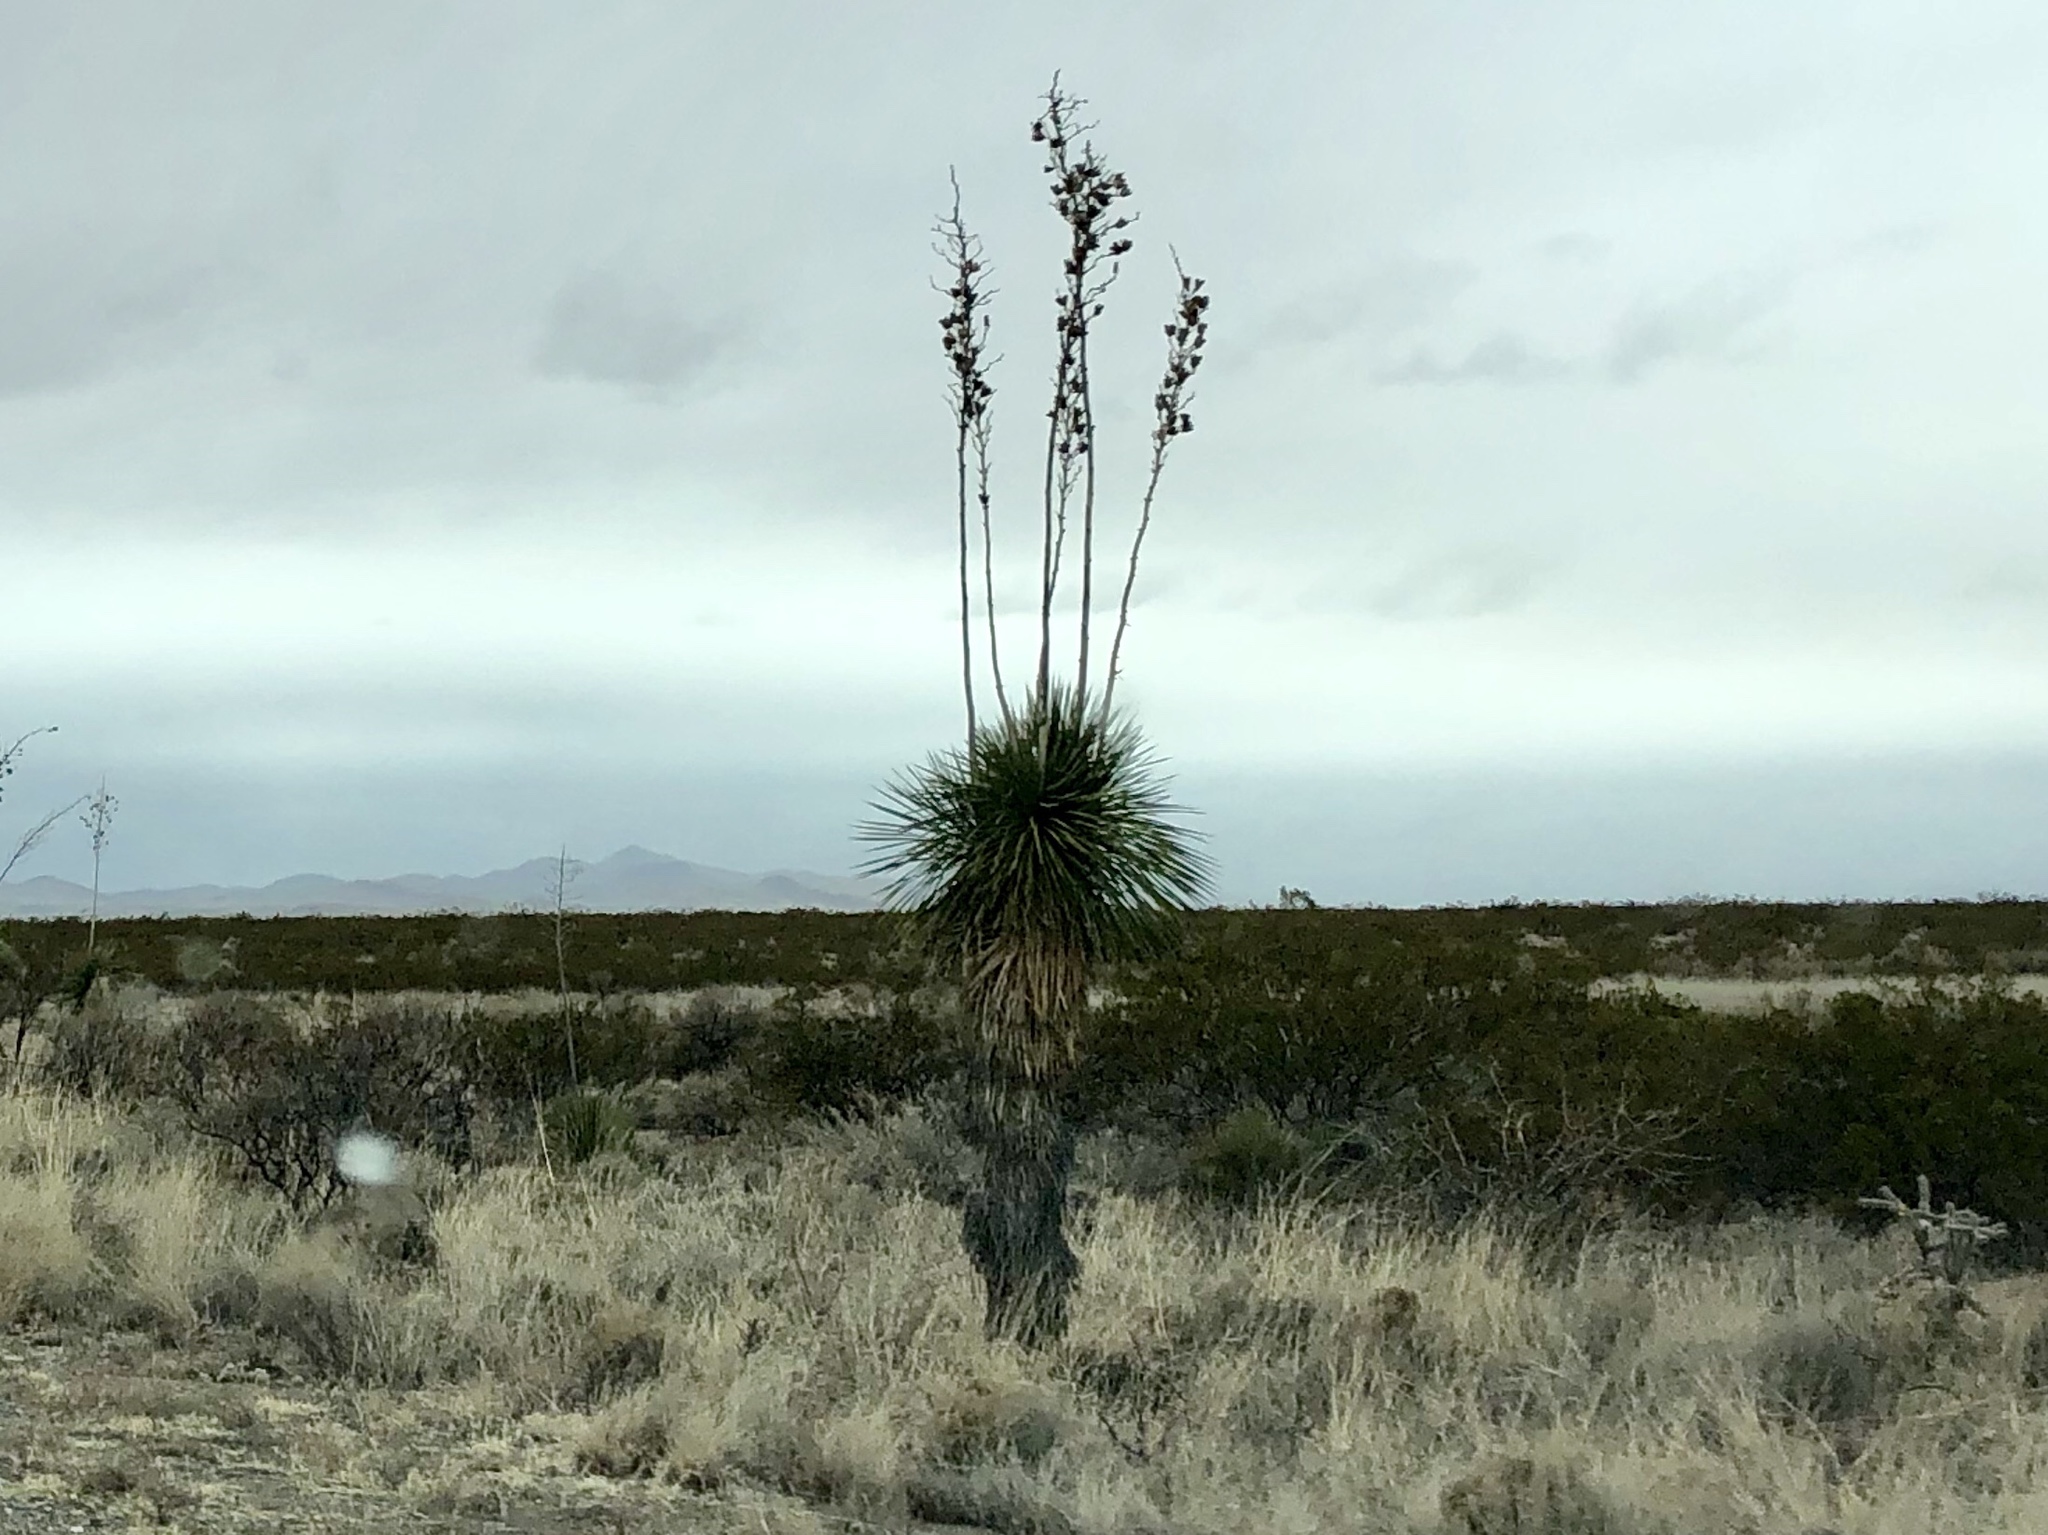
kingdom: Plantae
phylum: Tracheophyta
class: Liliopsida
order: Asparagales
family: Asparagaceae
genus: Yucca
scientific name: Yucca elata
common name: Palmella
